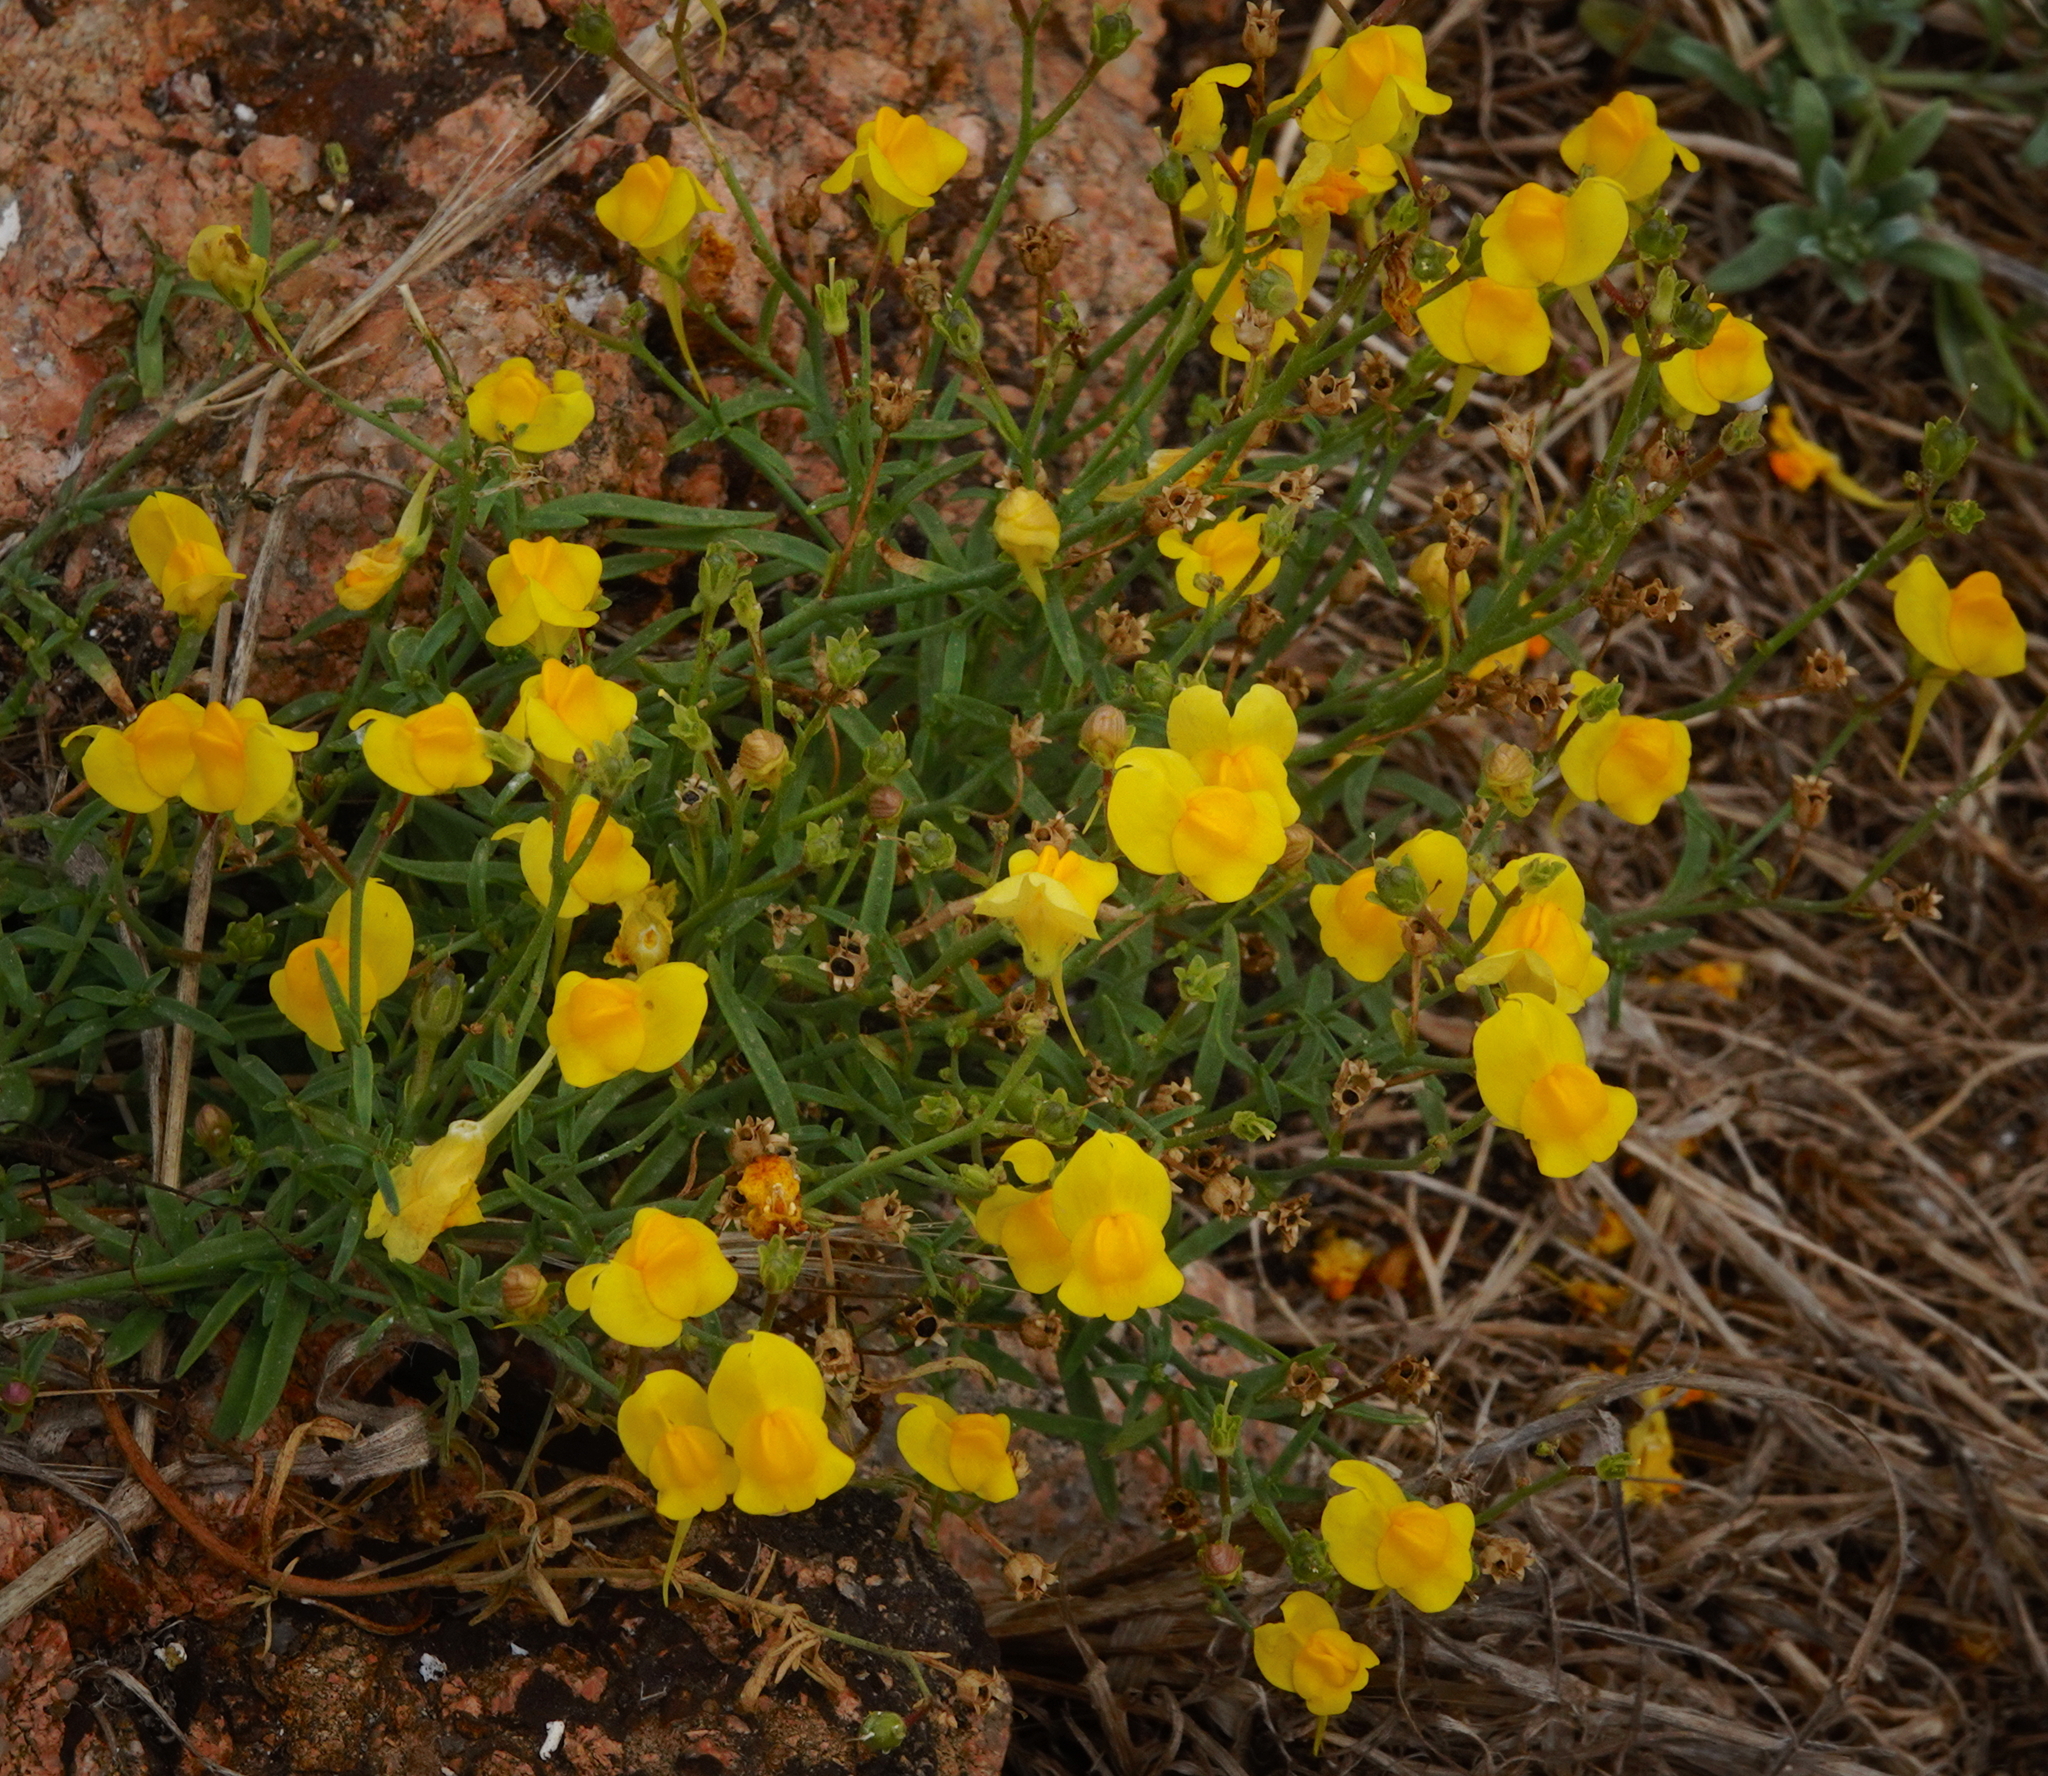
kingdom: Plantae
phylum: Tracheophyta
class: Magnoliopsida
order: Lamiales
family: Plantaginaceae
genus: Linaria
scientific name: Linaria spartea
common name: Ballast toadflax
